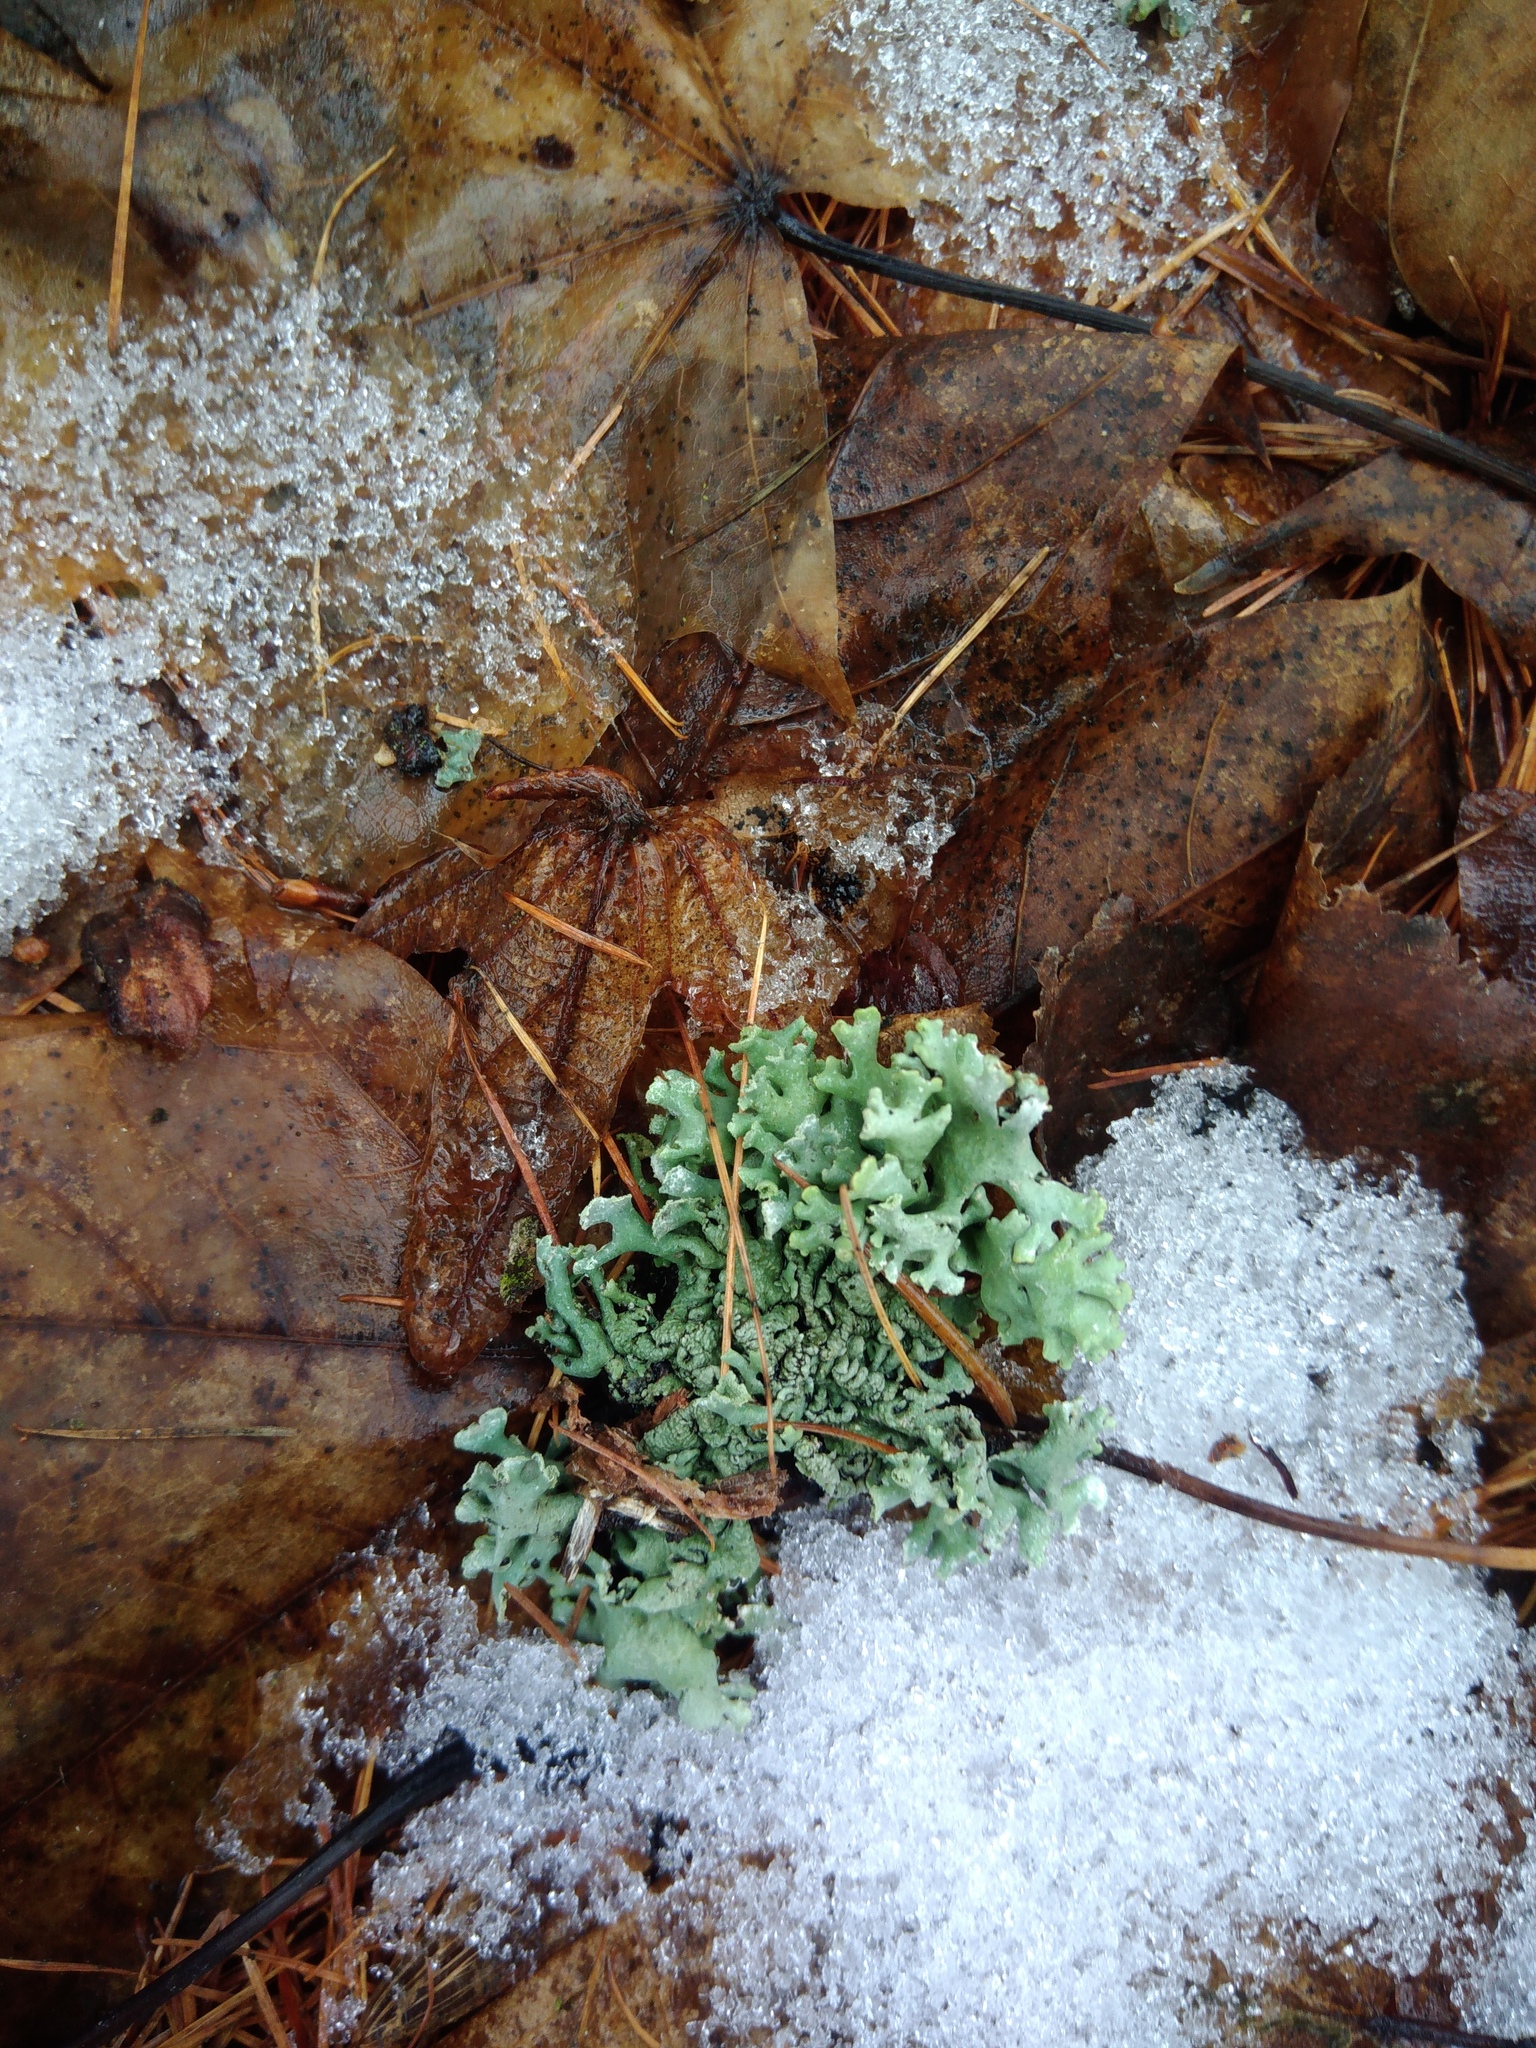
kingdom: Fungi
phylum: Ascomycota
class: Lecanoromycetes
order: Lecanorales
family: Parmeliaceae
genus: Hypogymnia
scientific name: Hypogymnia physodes
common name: Dark crottle
